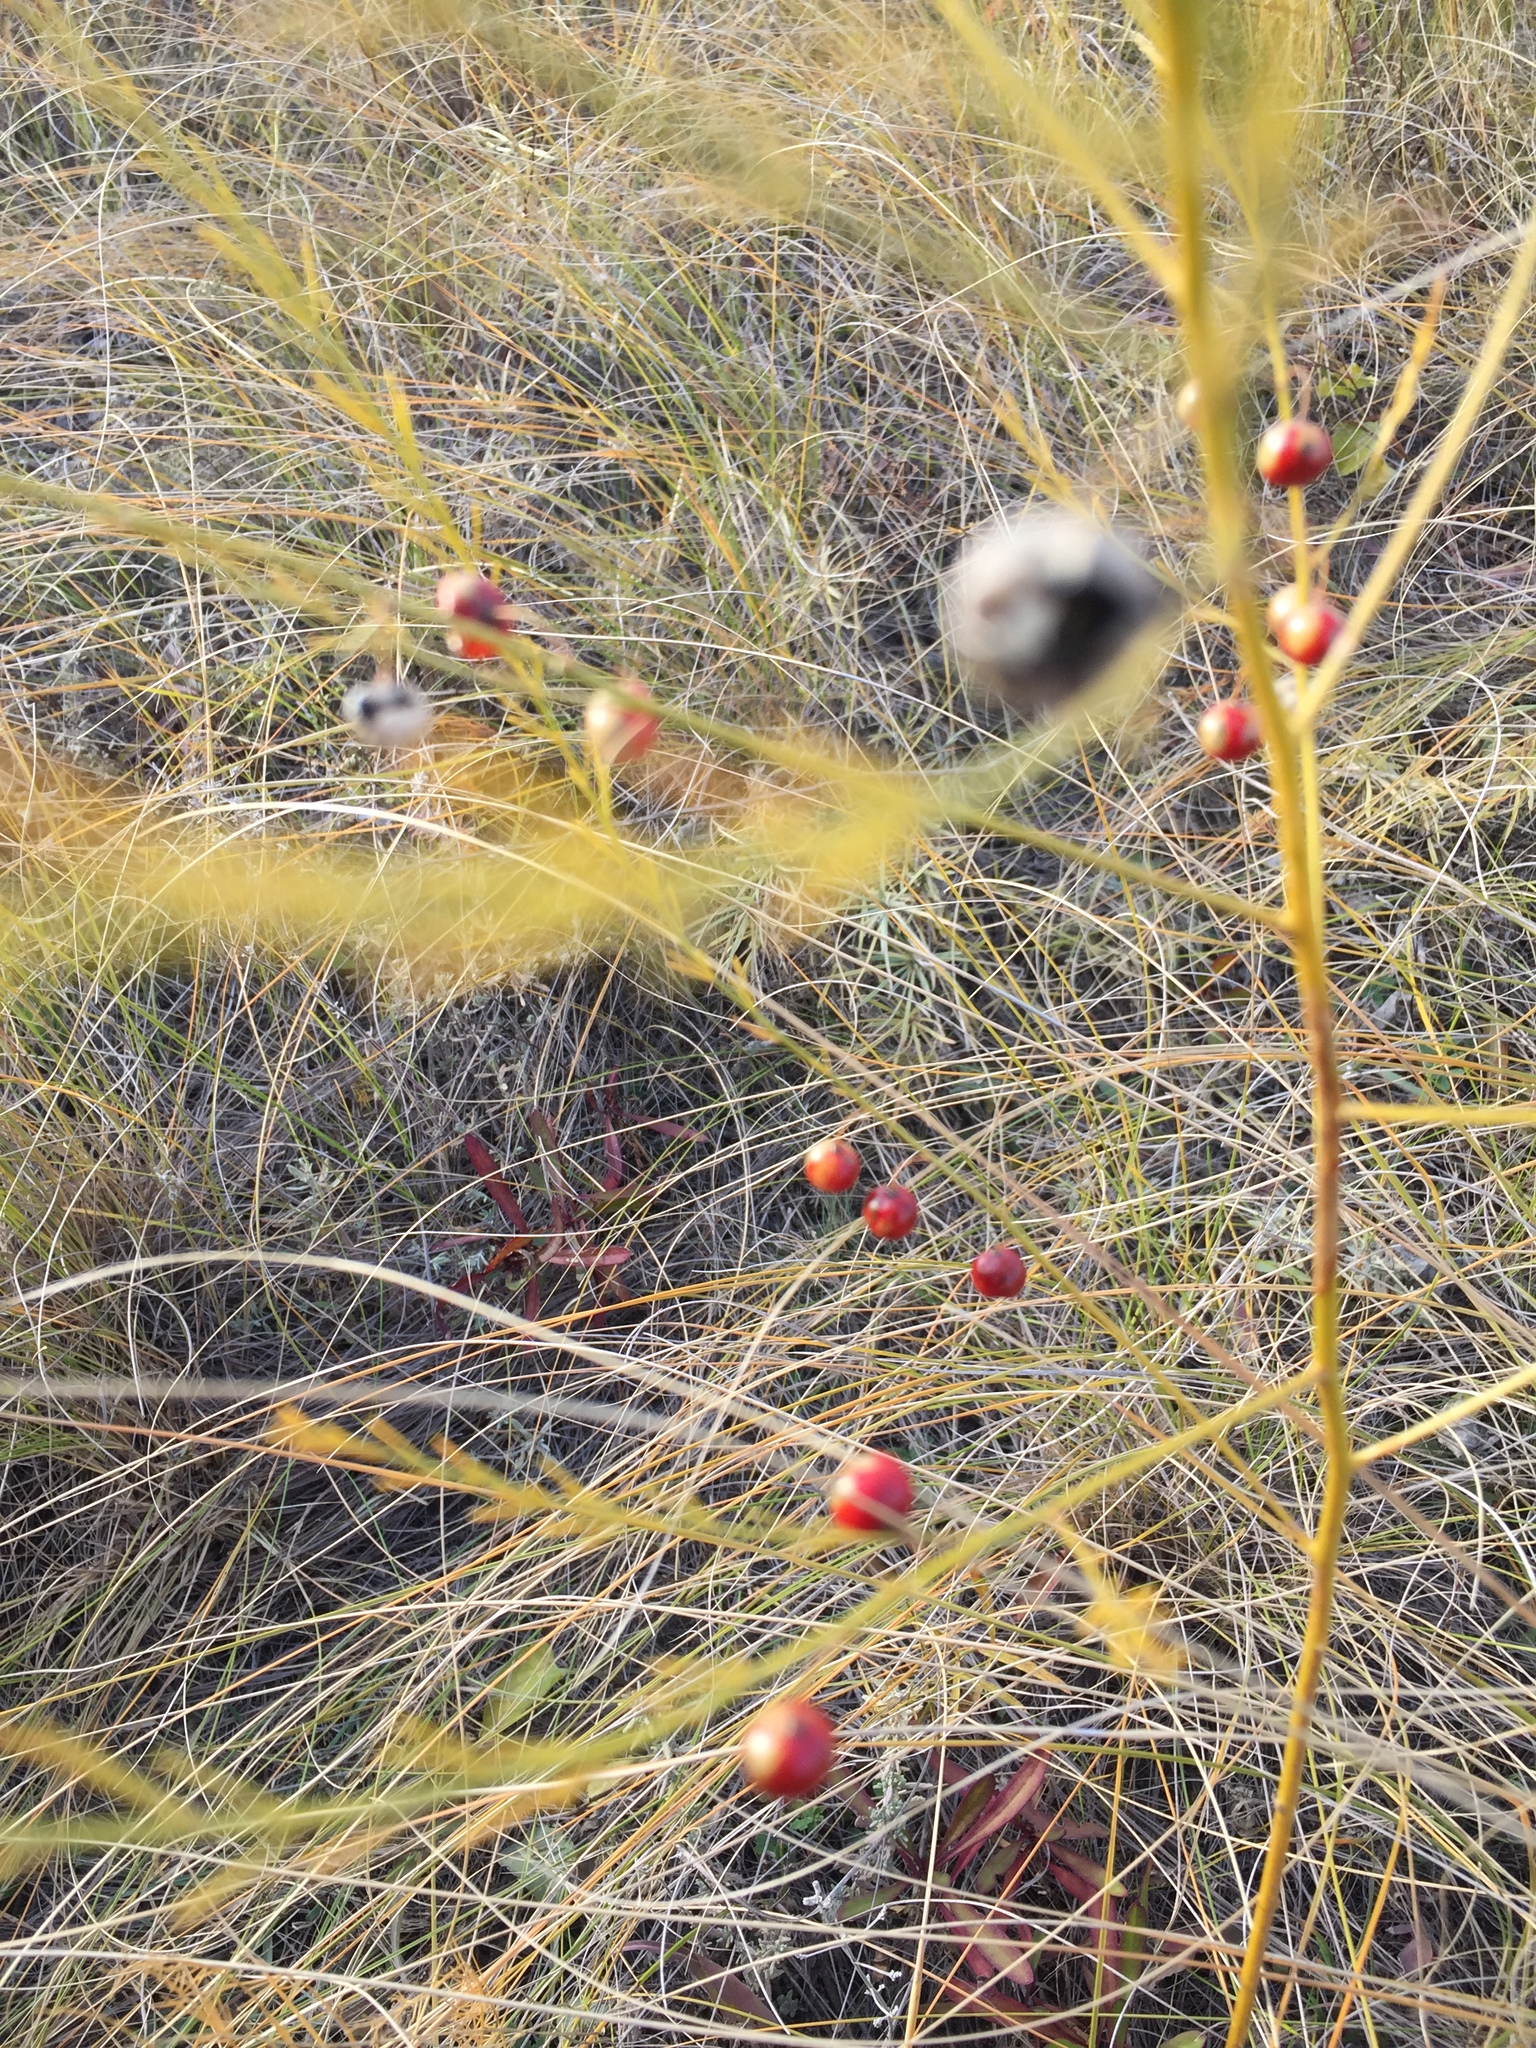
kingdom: Plantae
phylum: Tracheophyta
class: Liliopsida
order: Asparagales
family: Asparagaceae
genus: Asparagus
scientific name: Asparagus officinalis
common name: Garden asparagus
